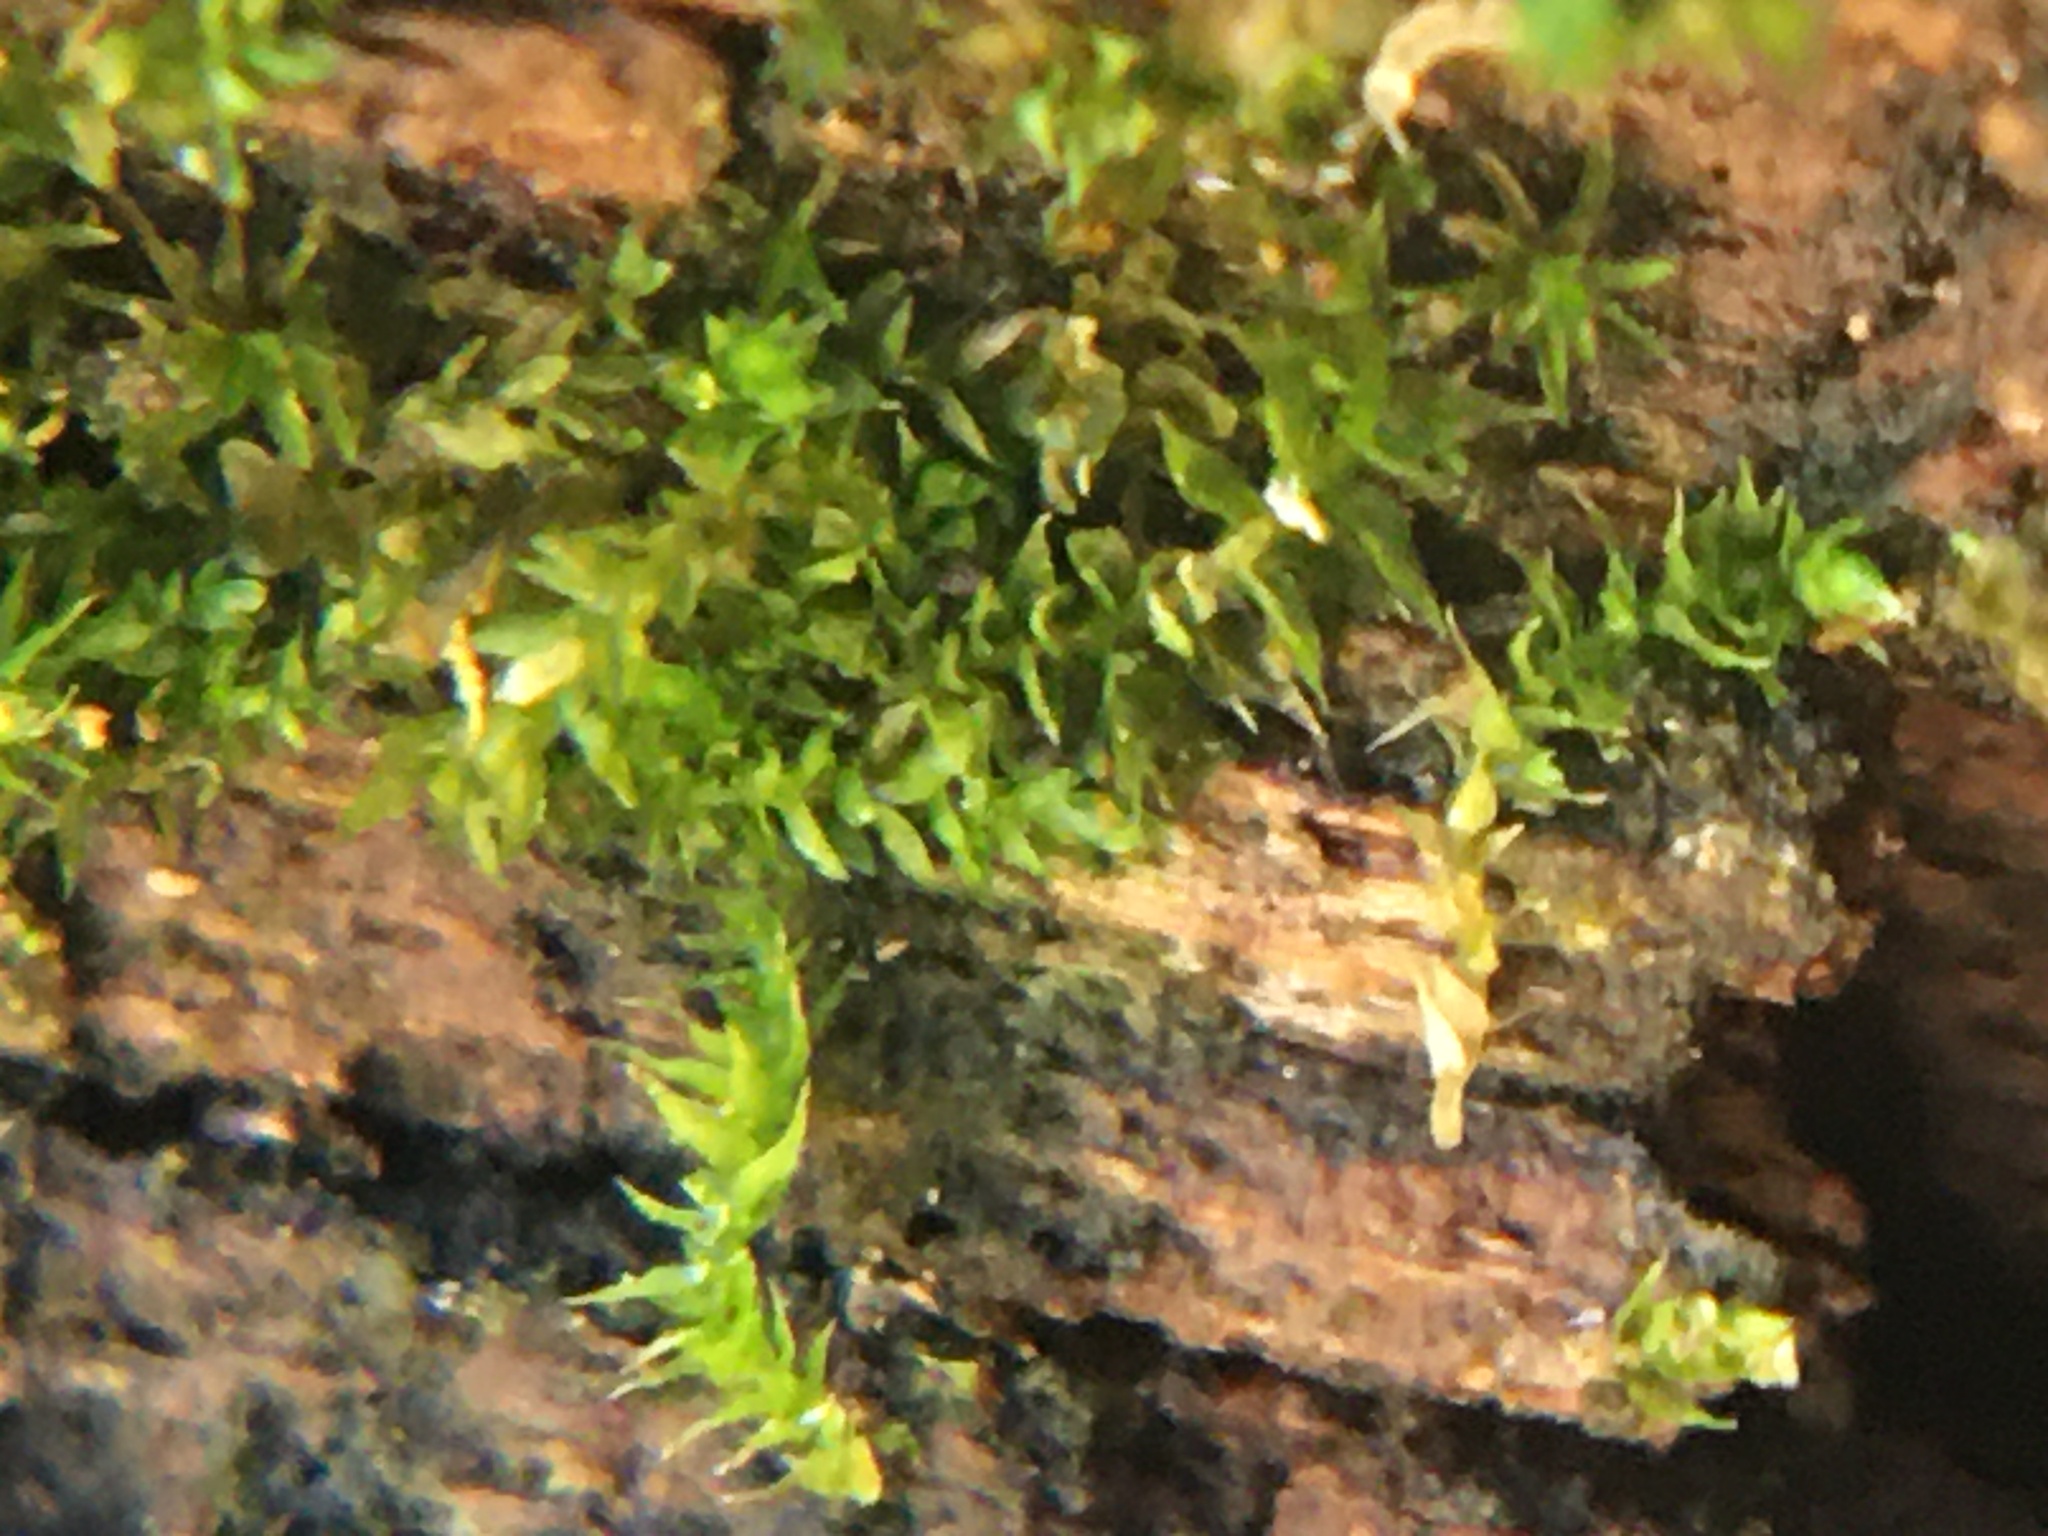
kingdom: Plantae
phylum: Bryophyta
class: Bryopsida
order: Hypnales
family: Amblystegiaceae
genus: Anacamptodon
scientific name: Anacamptodon splachnoides
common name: Knot-hole moss
